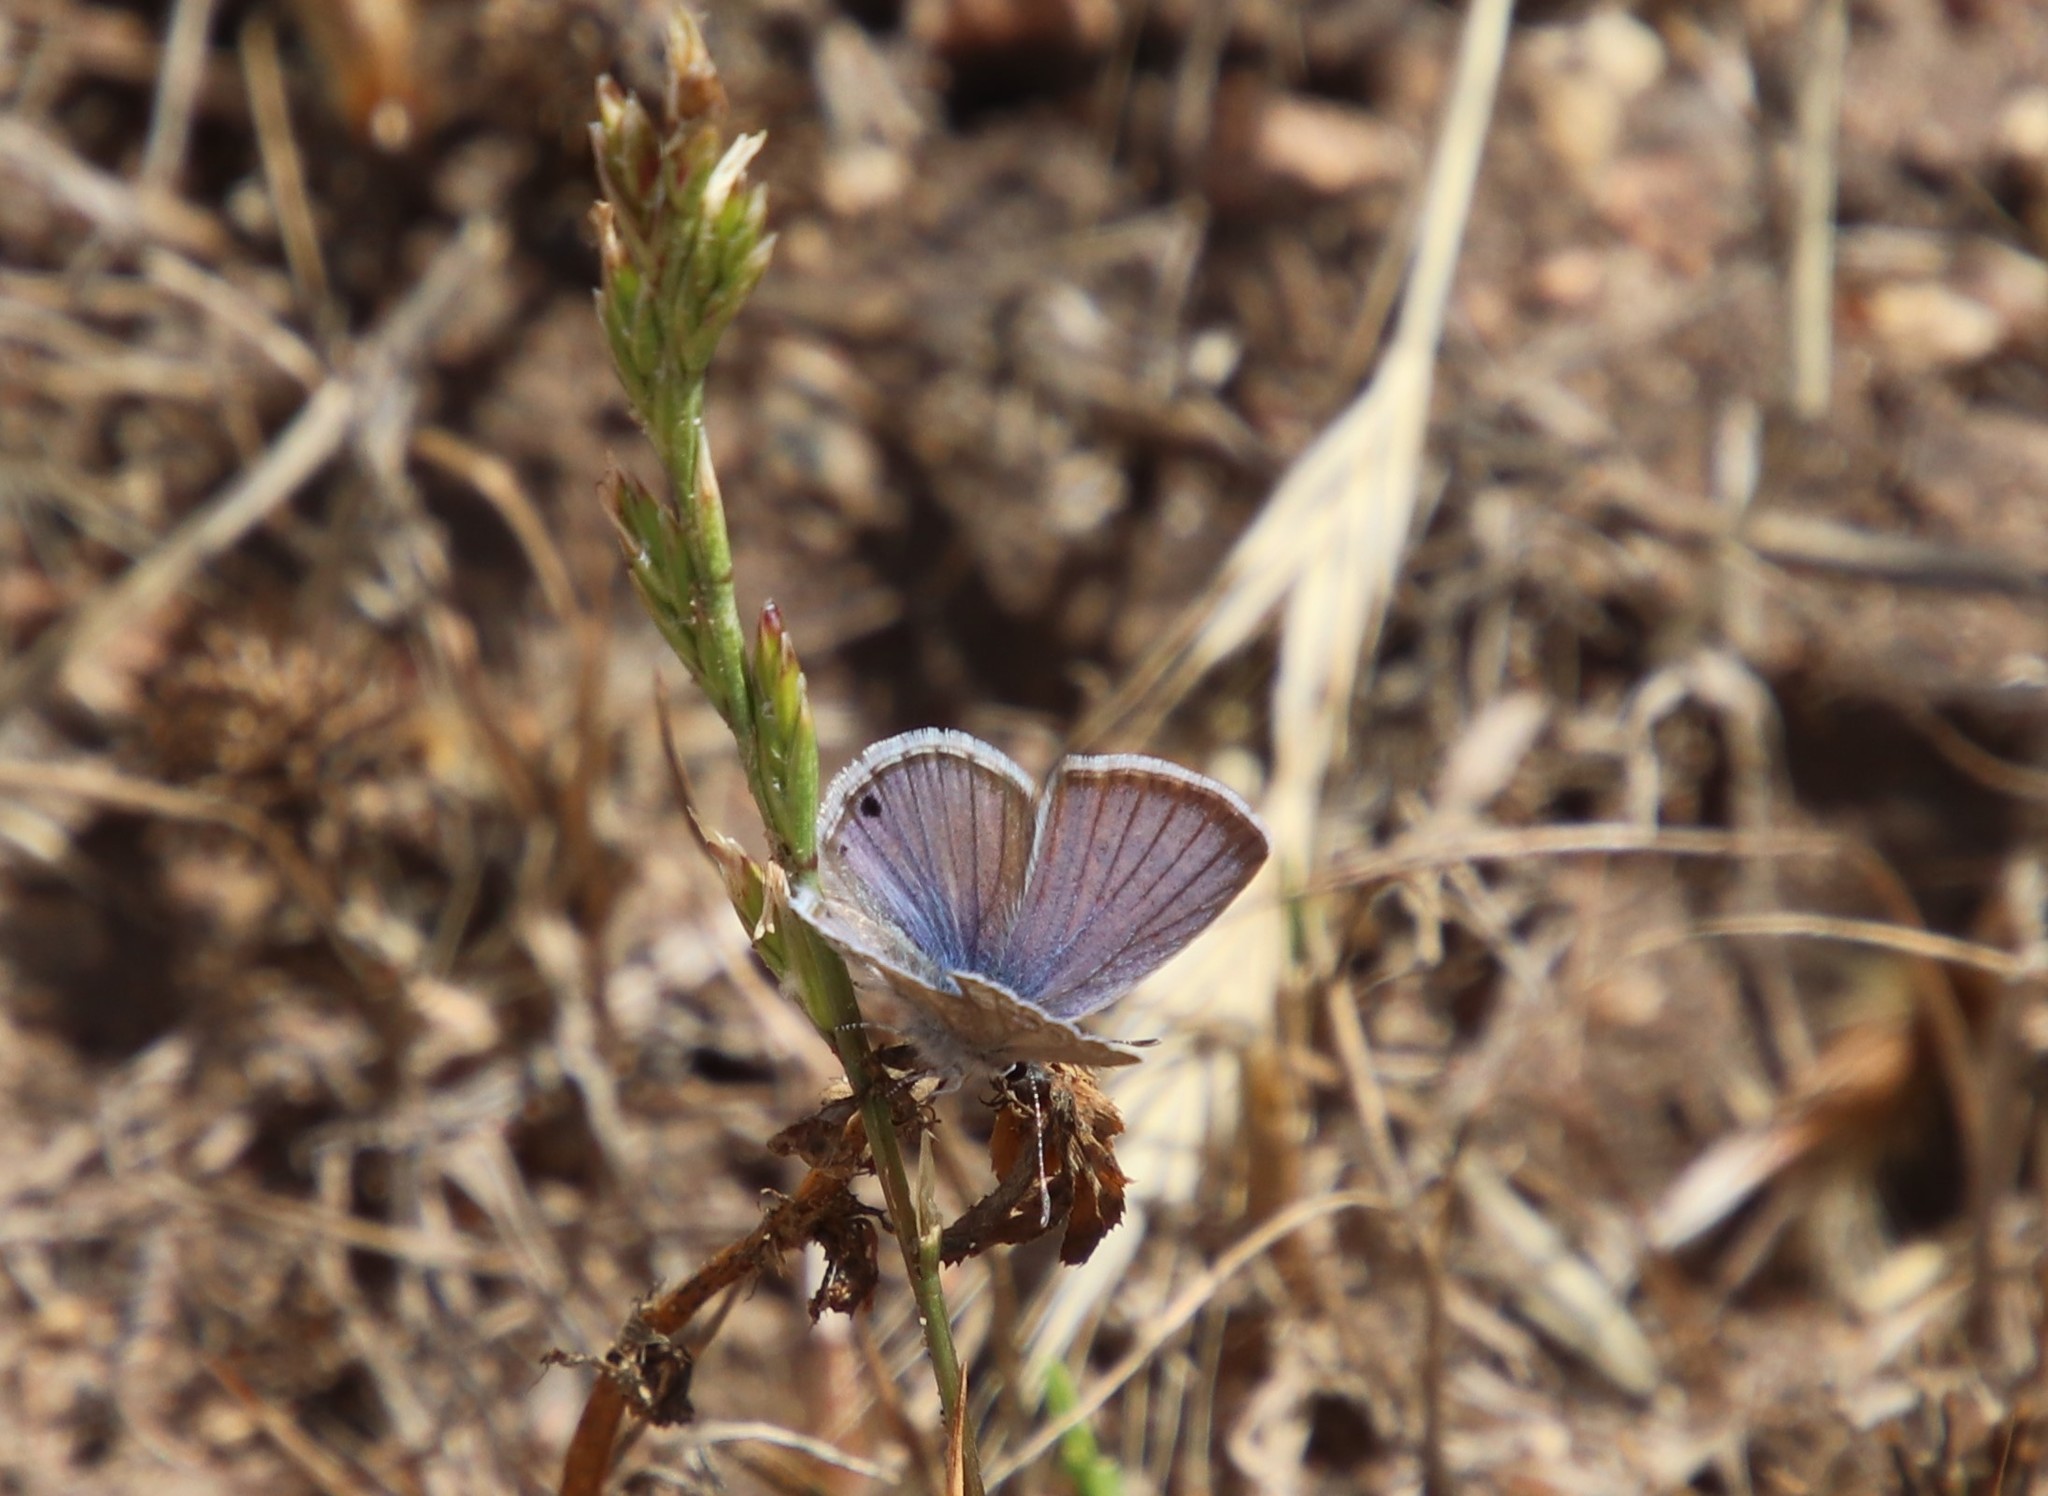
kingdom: Animalia
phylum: Arthropoda
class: Insecta
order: Lepidoptera
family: Lycaenidae
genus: Echinargus
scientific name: Echinargus isola
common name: Reakirt's blue
